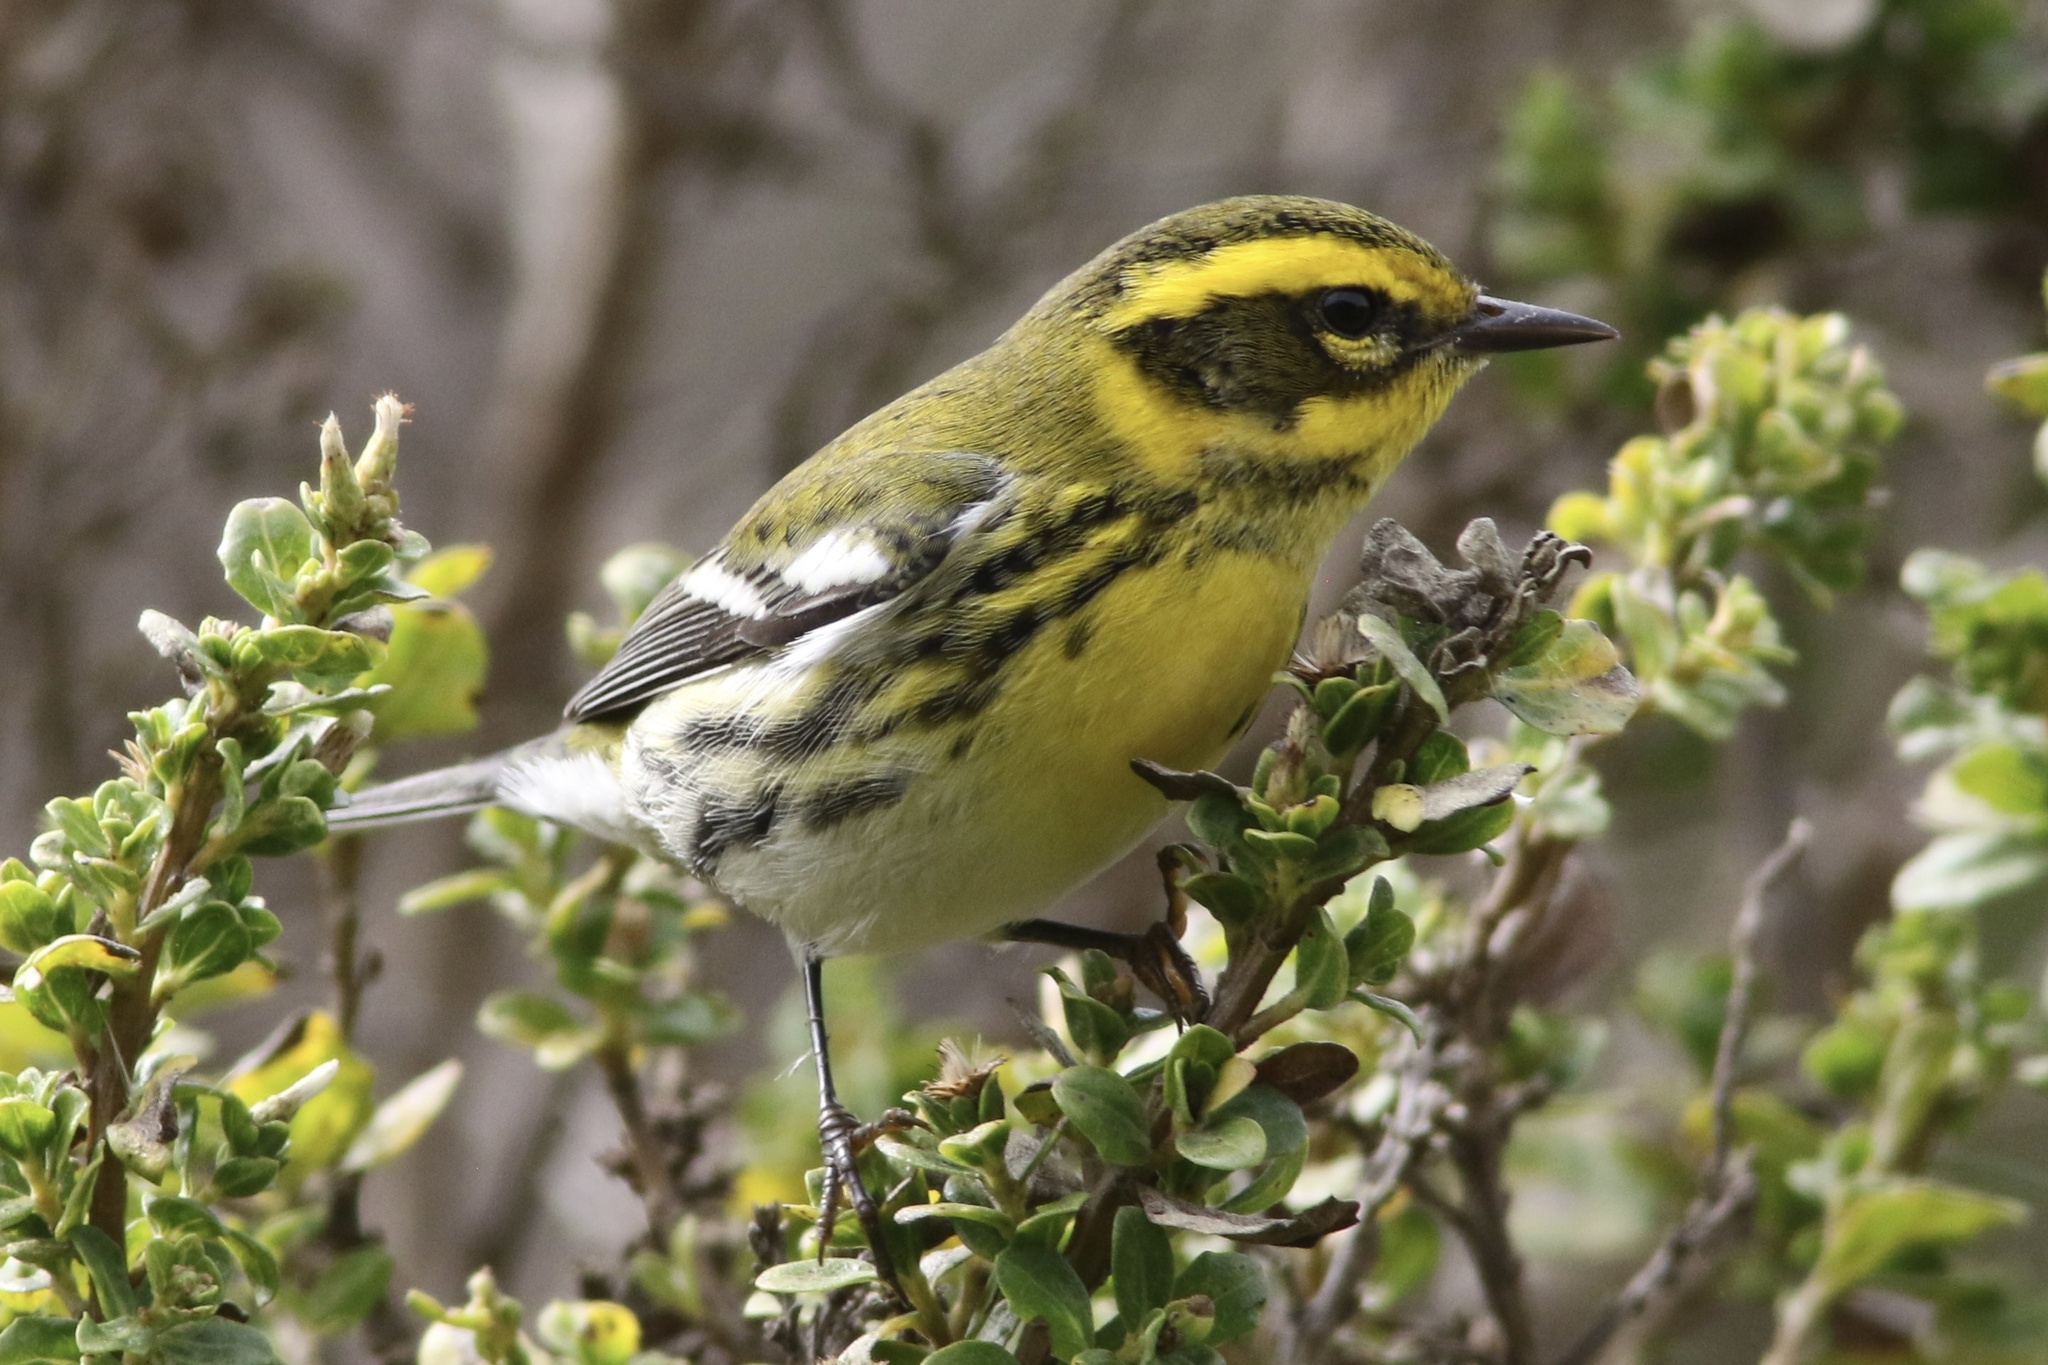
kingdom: Animalia
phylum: Chordata
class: Aves
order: Passeriformes
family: Parulidae
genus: Setophaga
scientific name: Setophaga townsendi
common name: Townsend's warbler
